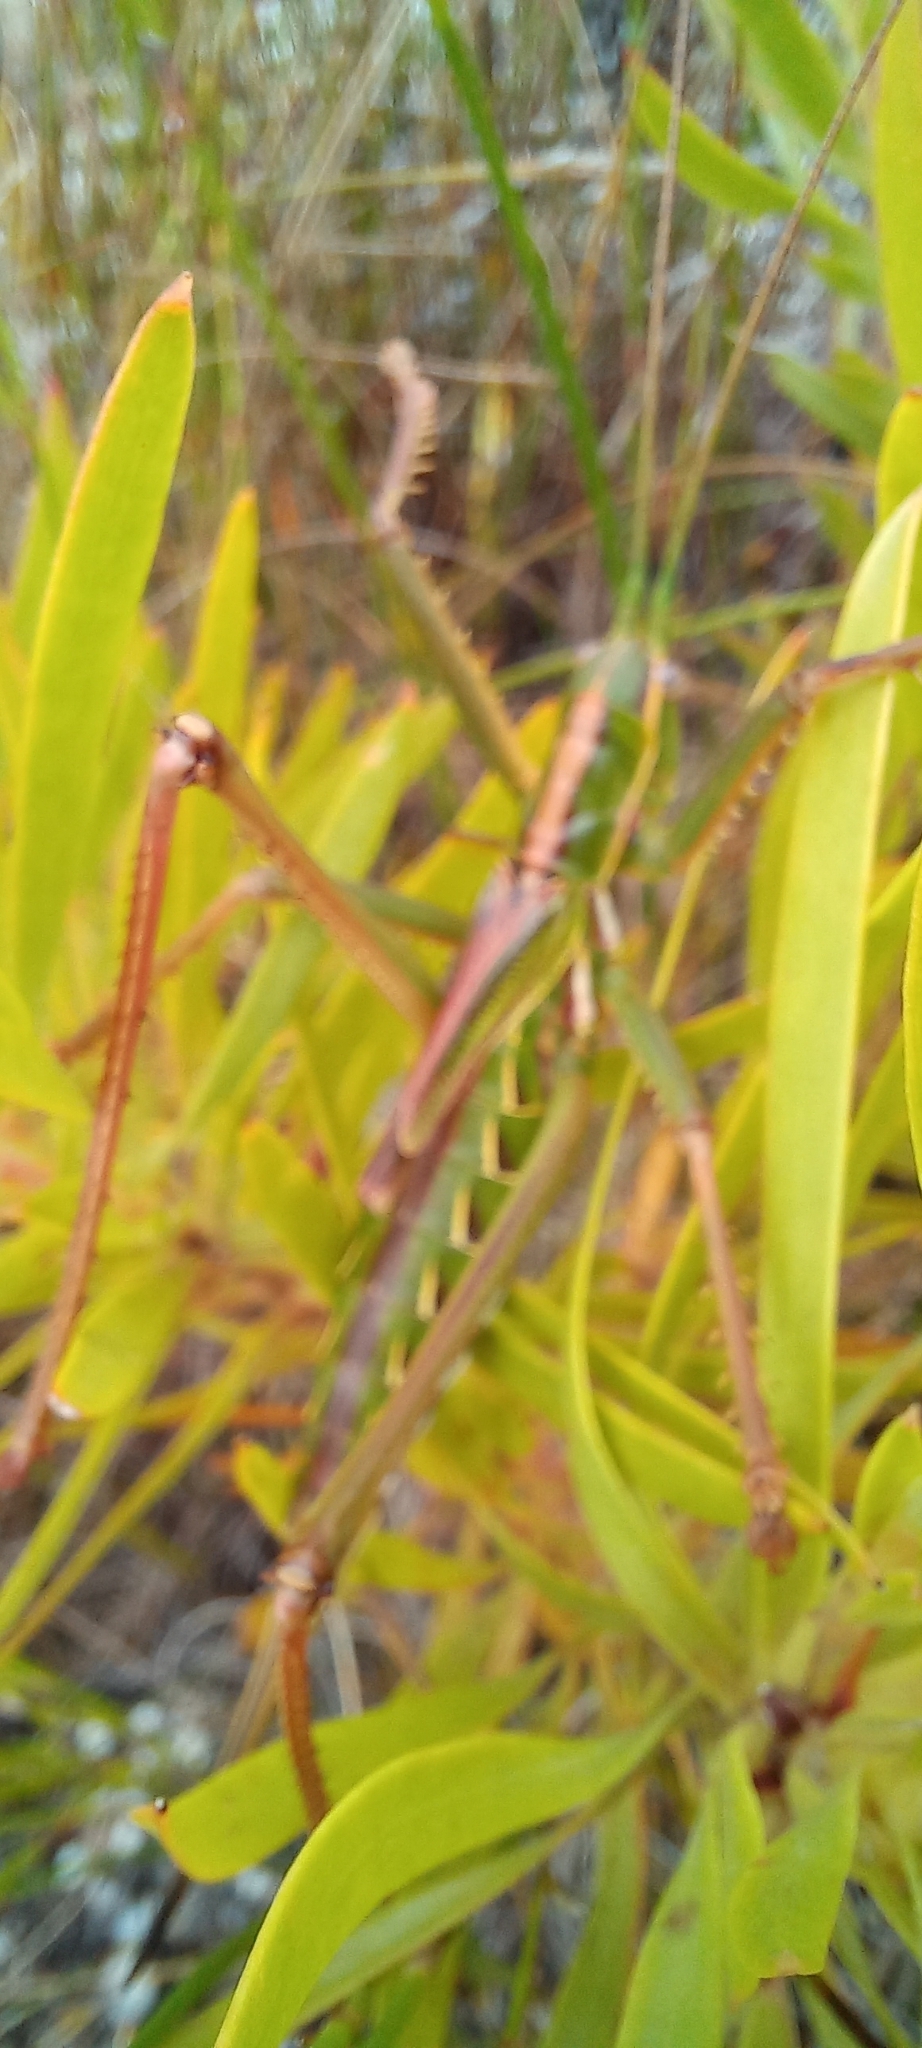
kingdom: Animalia
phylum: Arthropoda
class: Insecta
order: Orthoptera
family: Tettigoniidae
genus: Clonia
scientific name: Clonia melanoptera
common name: Giant black-winged clonia
